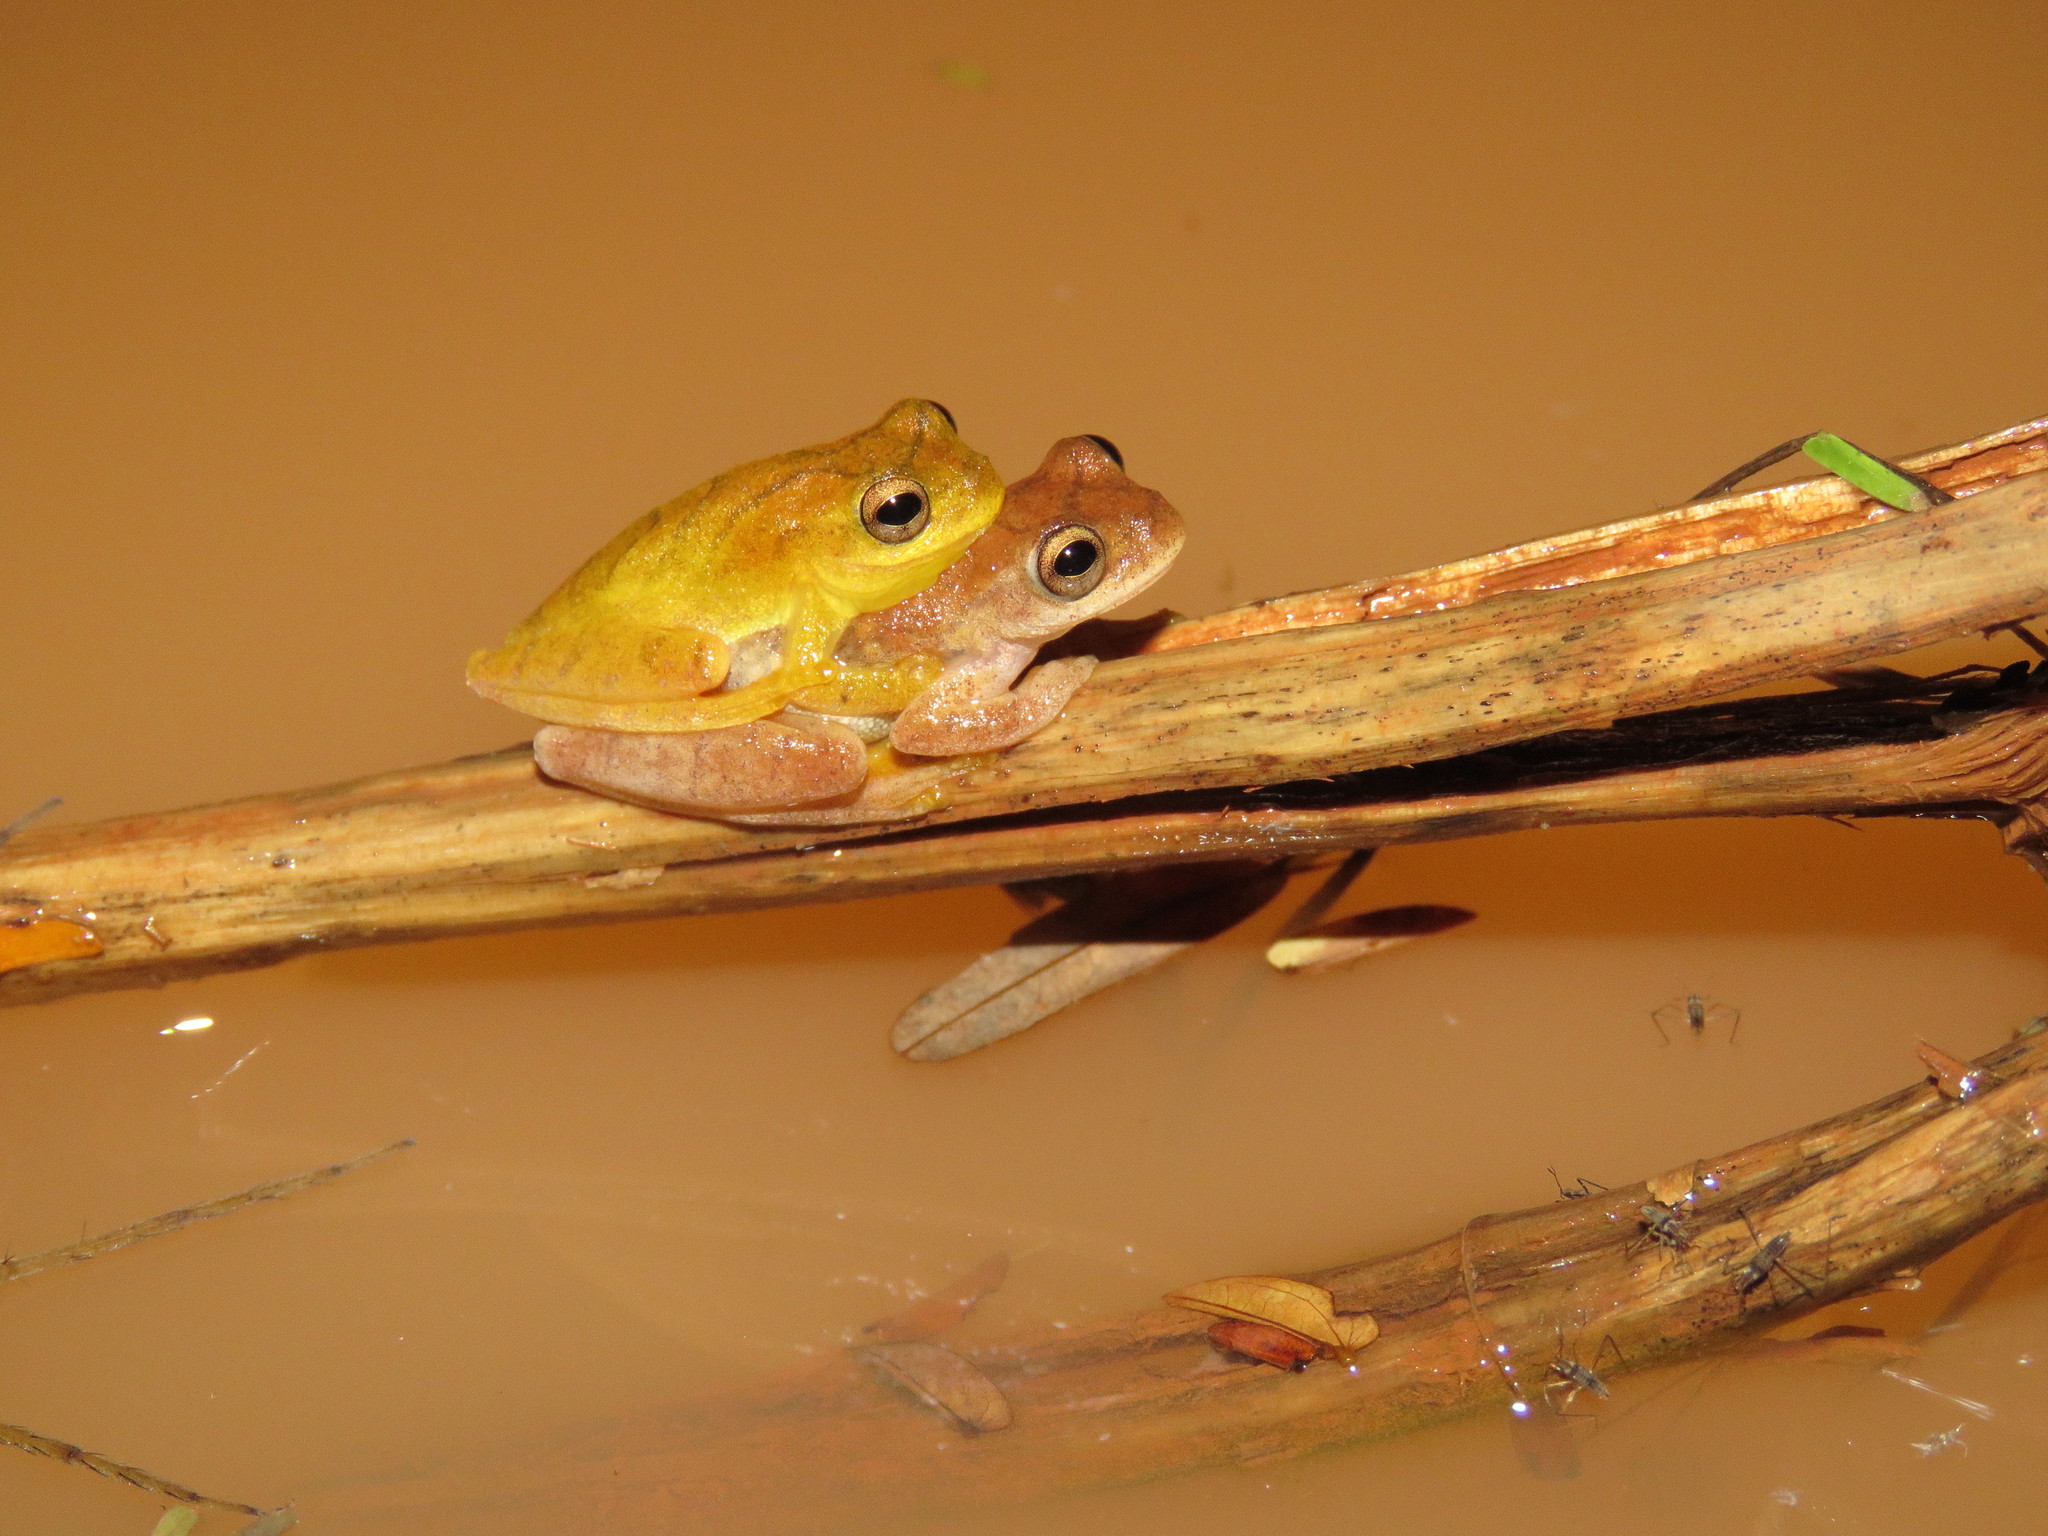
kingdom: Animalia
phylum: Chordata
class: Amphibia
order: Anura
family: Hylidae
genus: Dendropsophus
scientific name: Dendropsophus minutus
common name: Lesser treefrog
